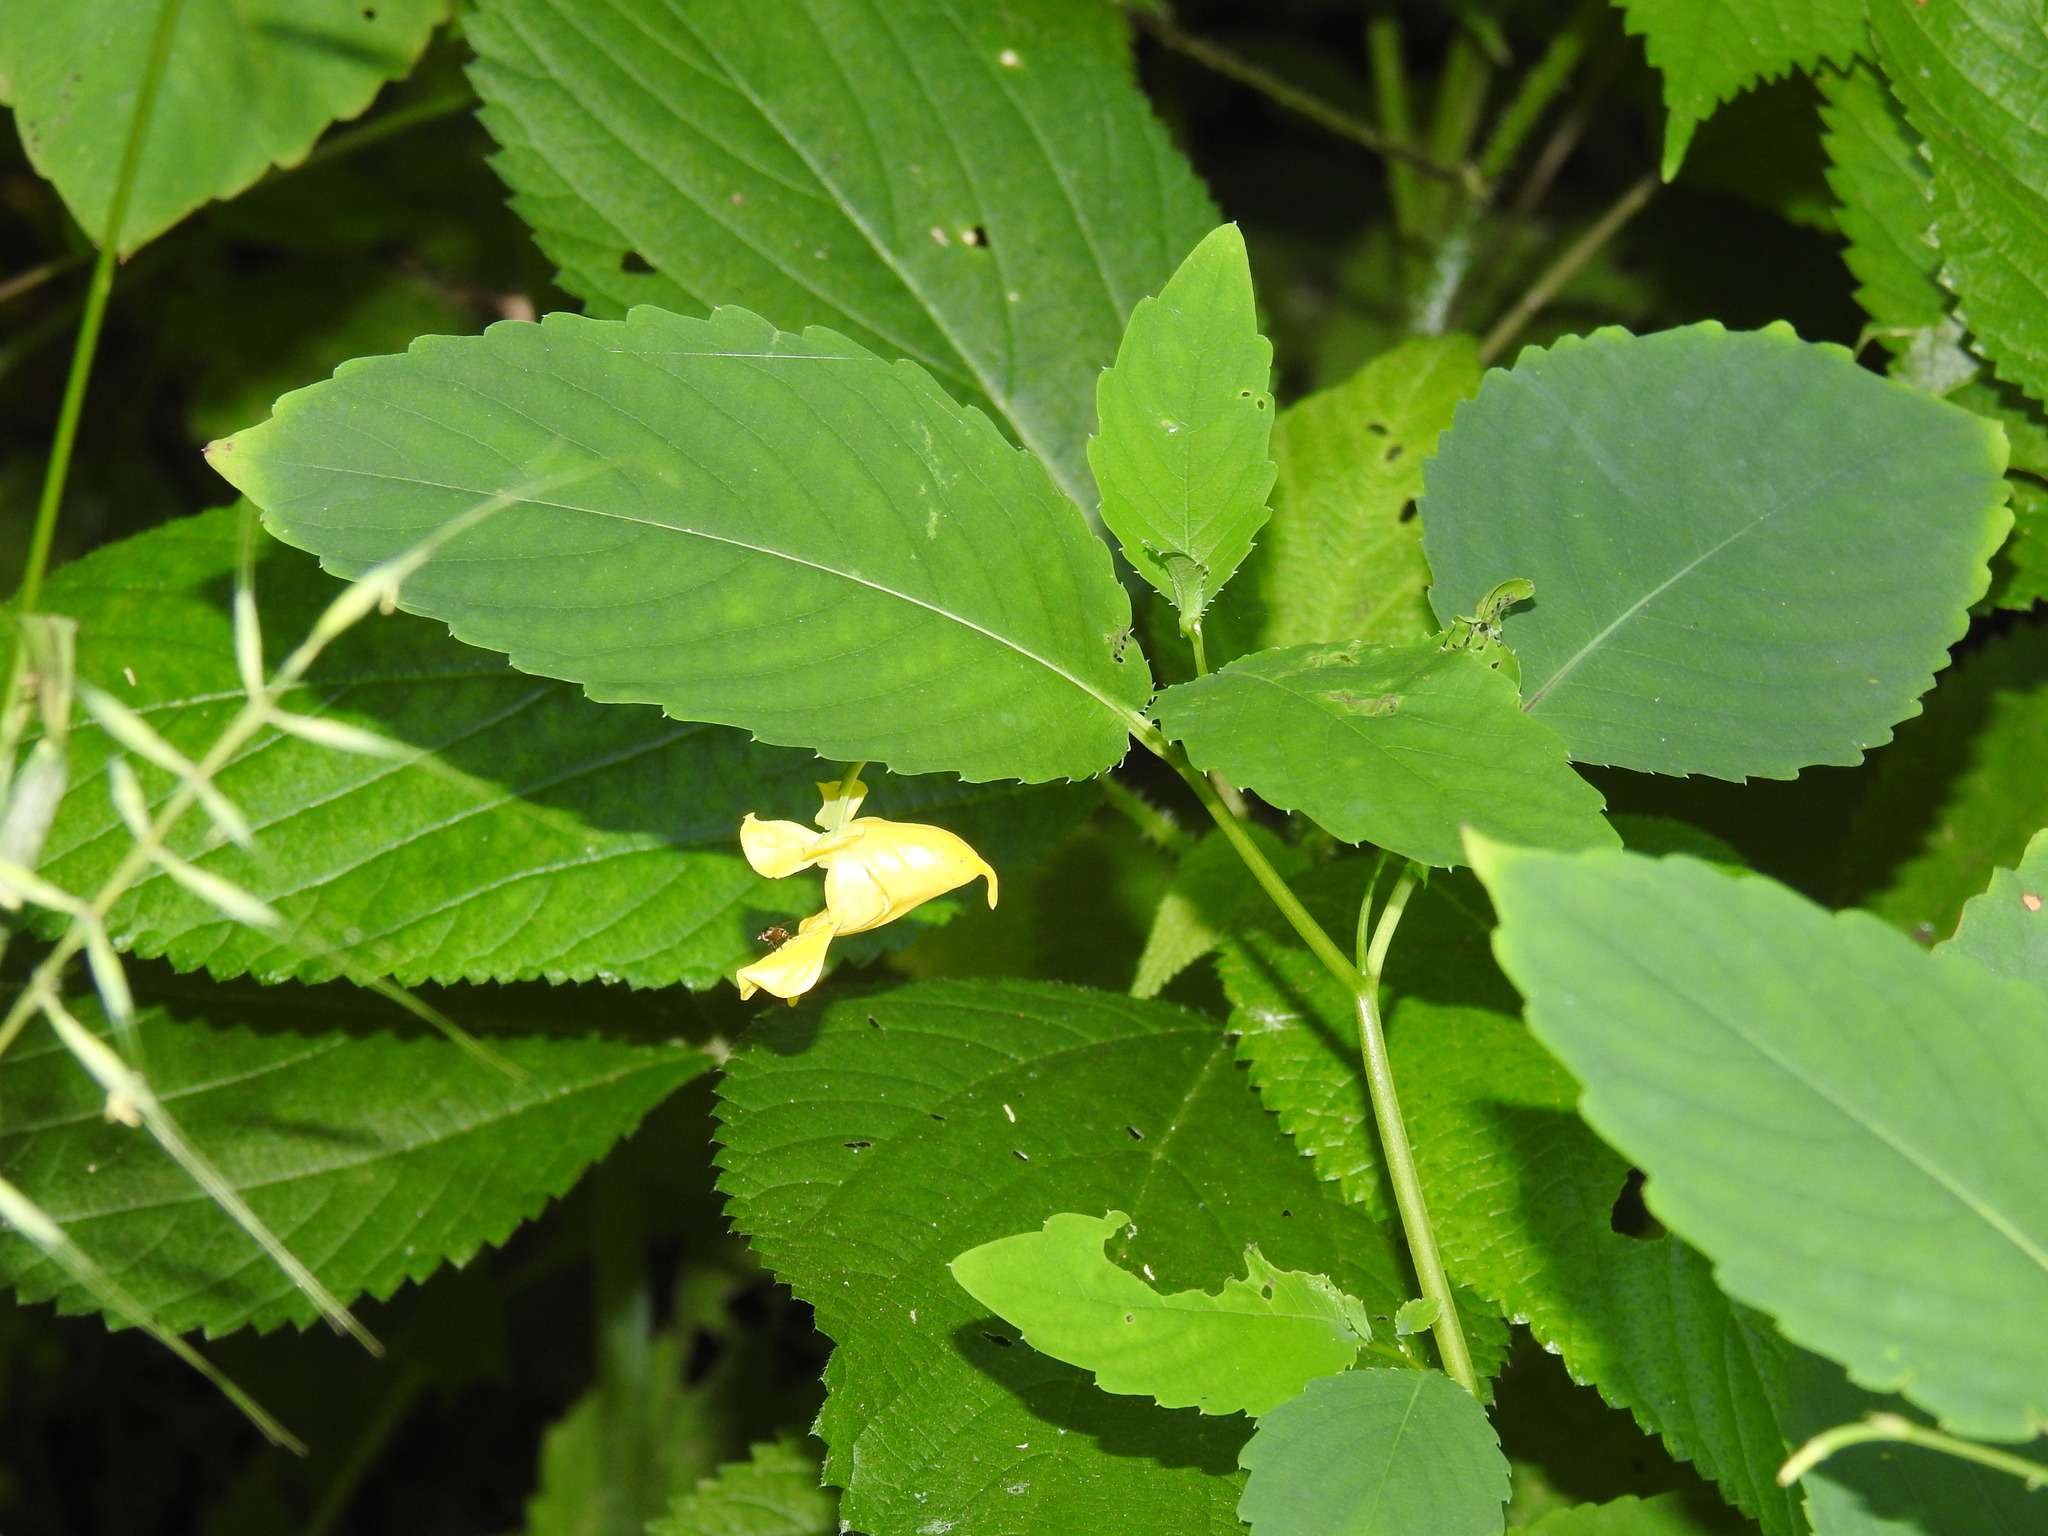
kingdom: Plantae
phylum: Tracheophyta
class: Magnoliopsida
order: Ericales
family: Balsaminaceae
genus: Impatiens
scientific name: Impatiens pallida
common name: Pale snapweed
